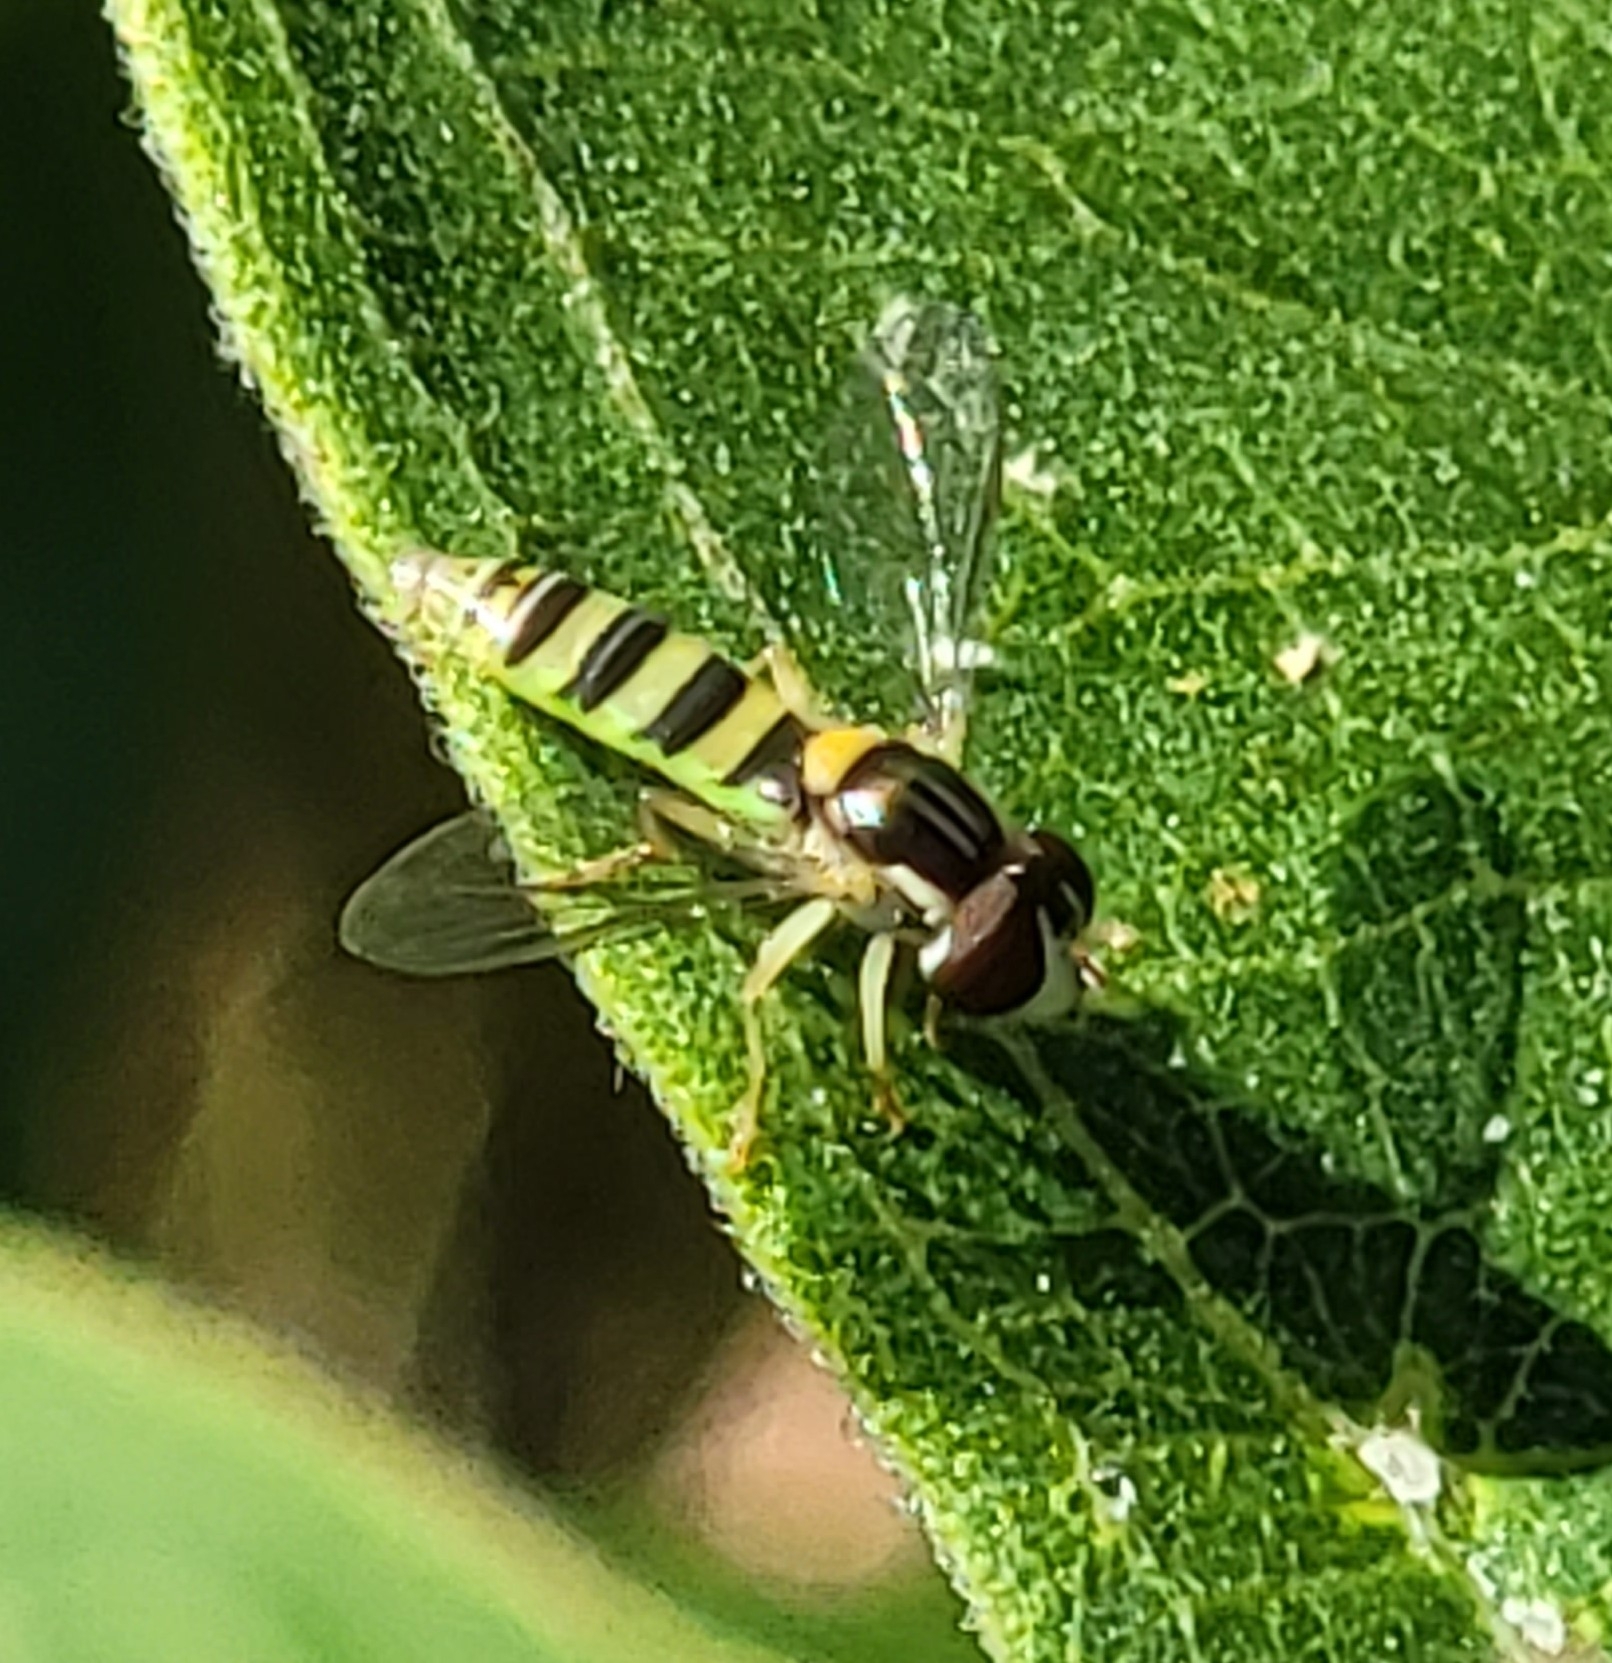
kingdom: Animalia
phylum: Arthropoda
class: Insecta
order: Diptera
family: Syrphidae
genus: Sphaerophoria
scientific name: Sphaerophoria contigua
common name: Tufted globetail
